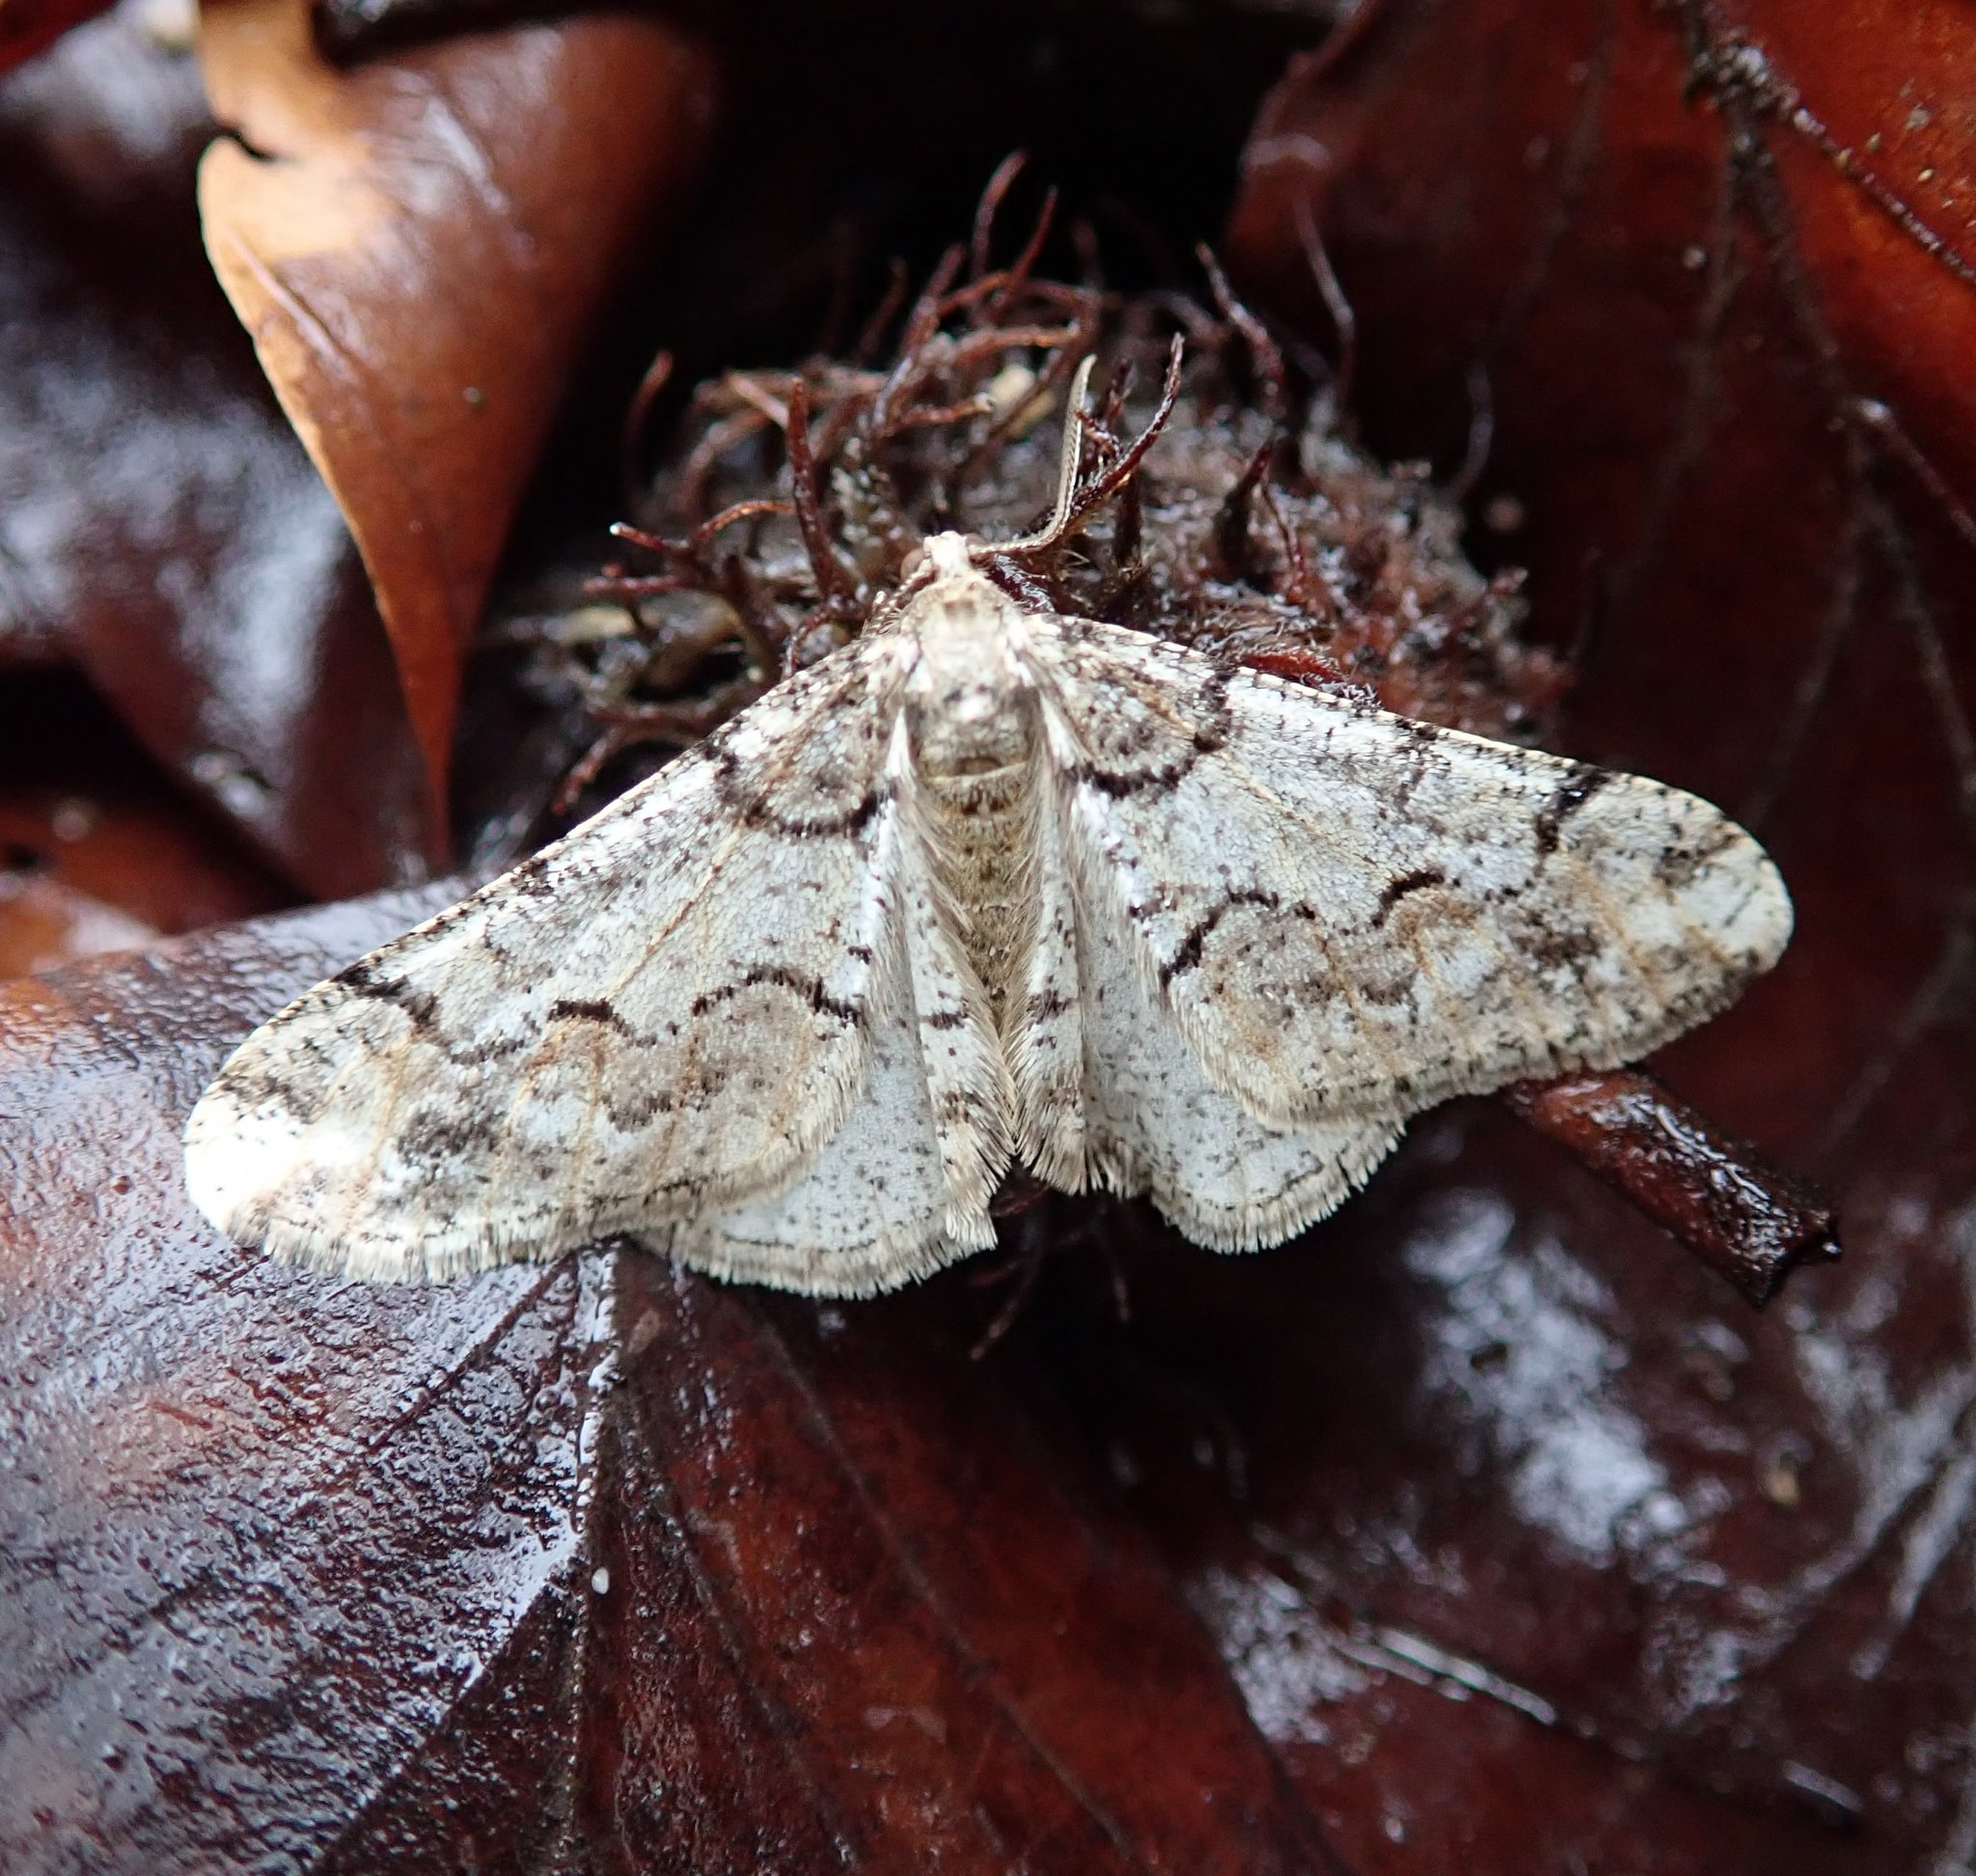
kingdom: Animalia
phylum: Arthropoda
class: Insecta
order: Lepidoptera
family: Geometridae
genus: Agriopis
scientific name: Agriopis leucophaearia
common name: Spring usher
